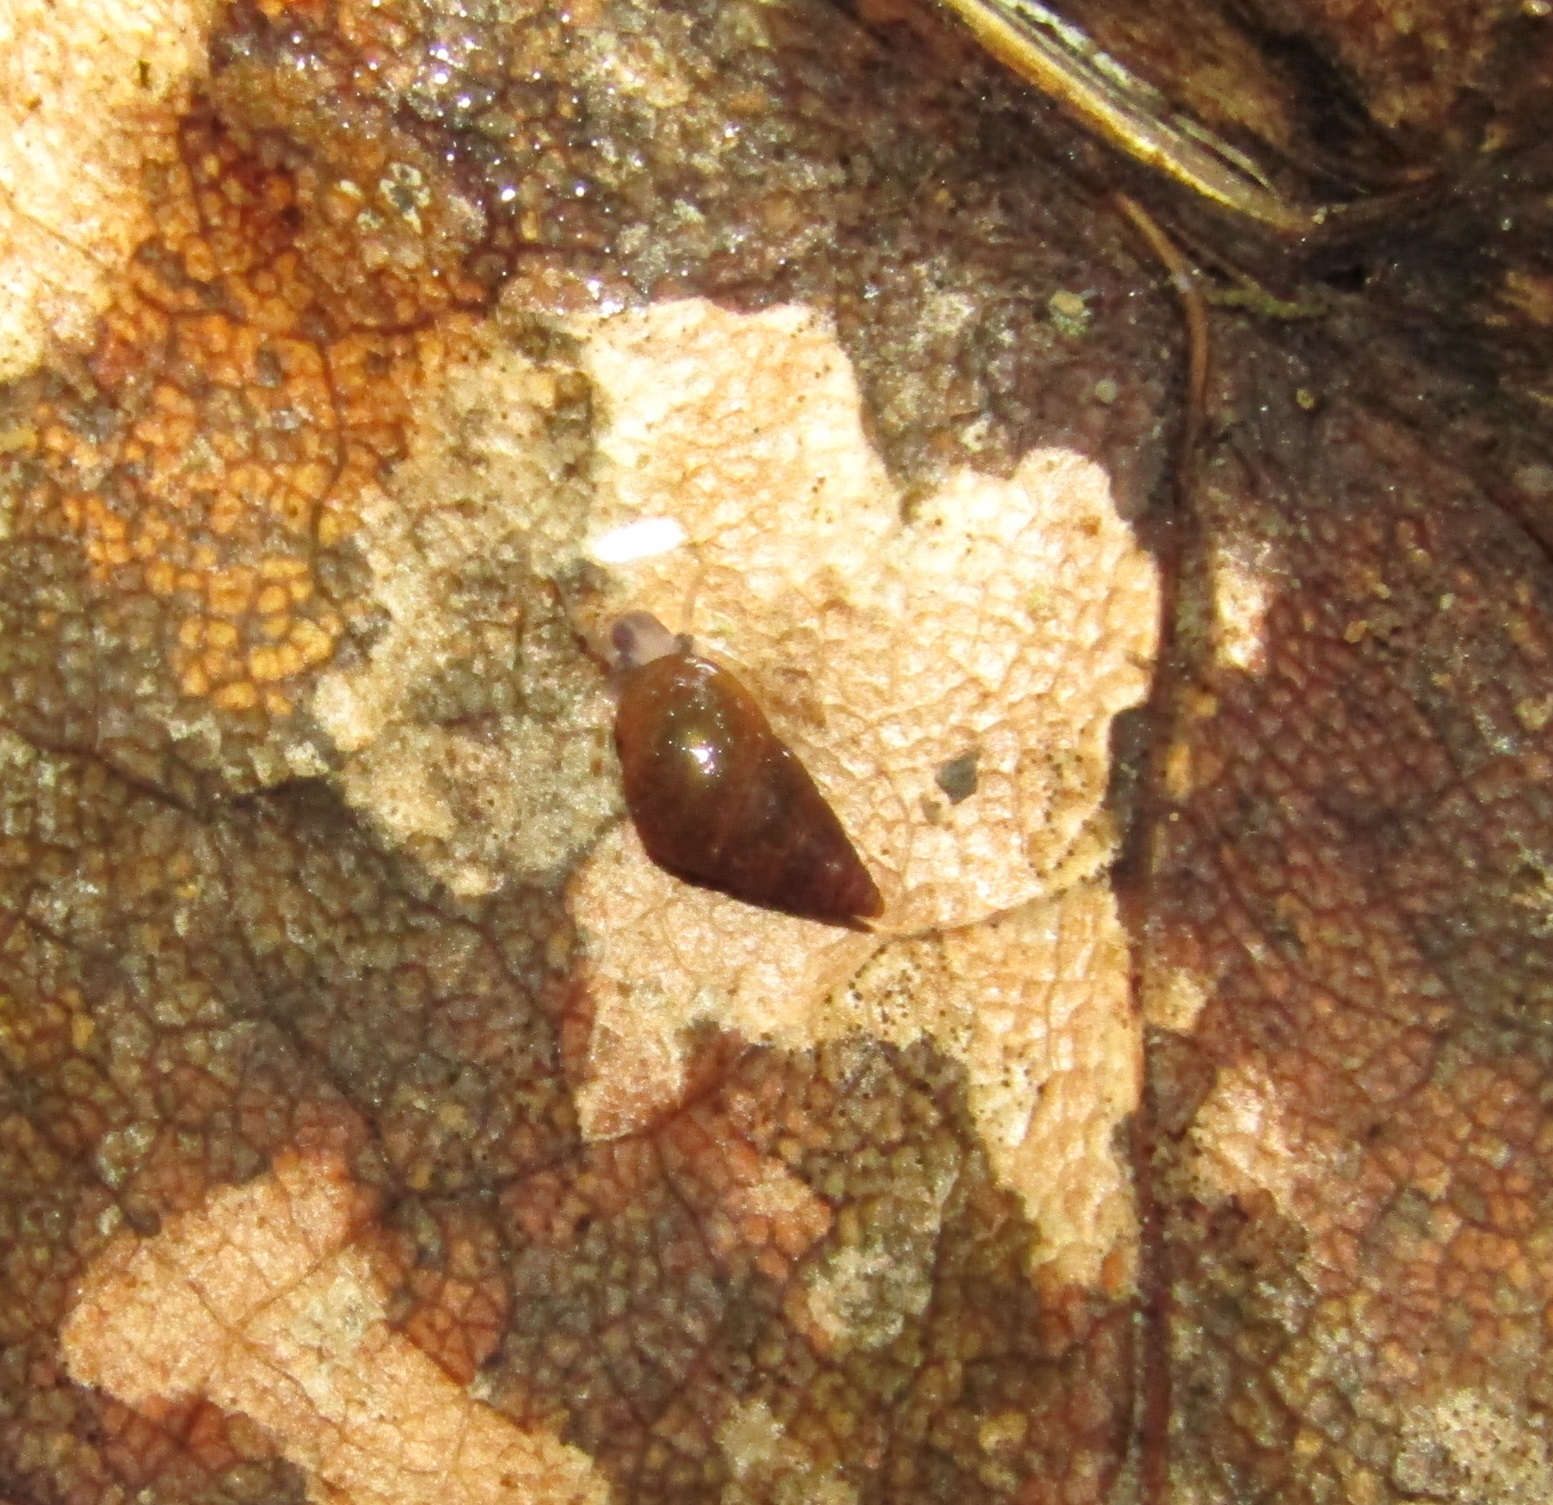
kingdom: Animalia
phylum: Mollusca
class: Gastropoda
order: Littorinimorpha
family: Tateidae
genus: Potamopyrgus
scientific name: Potamopyrgus antipodarum
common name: Jenkins' spire snail
